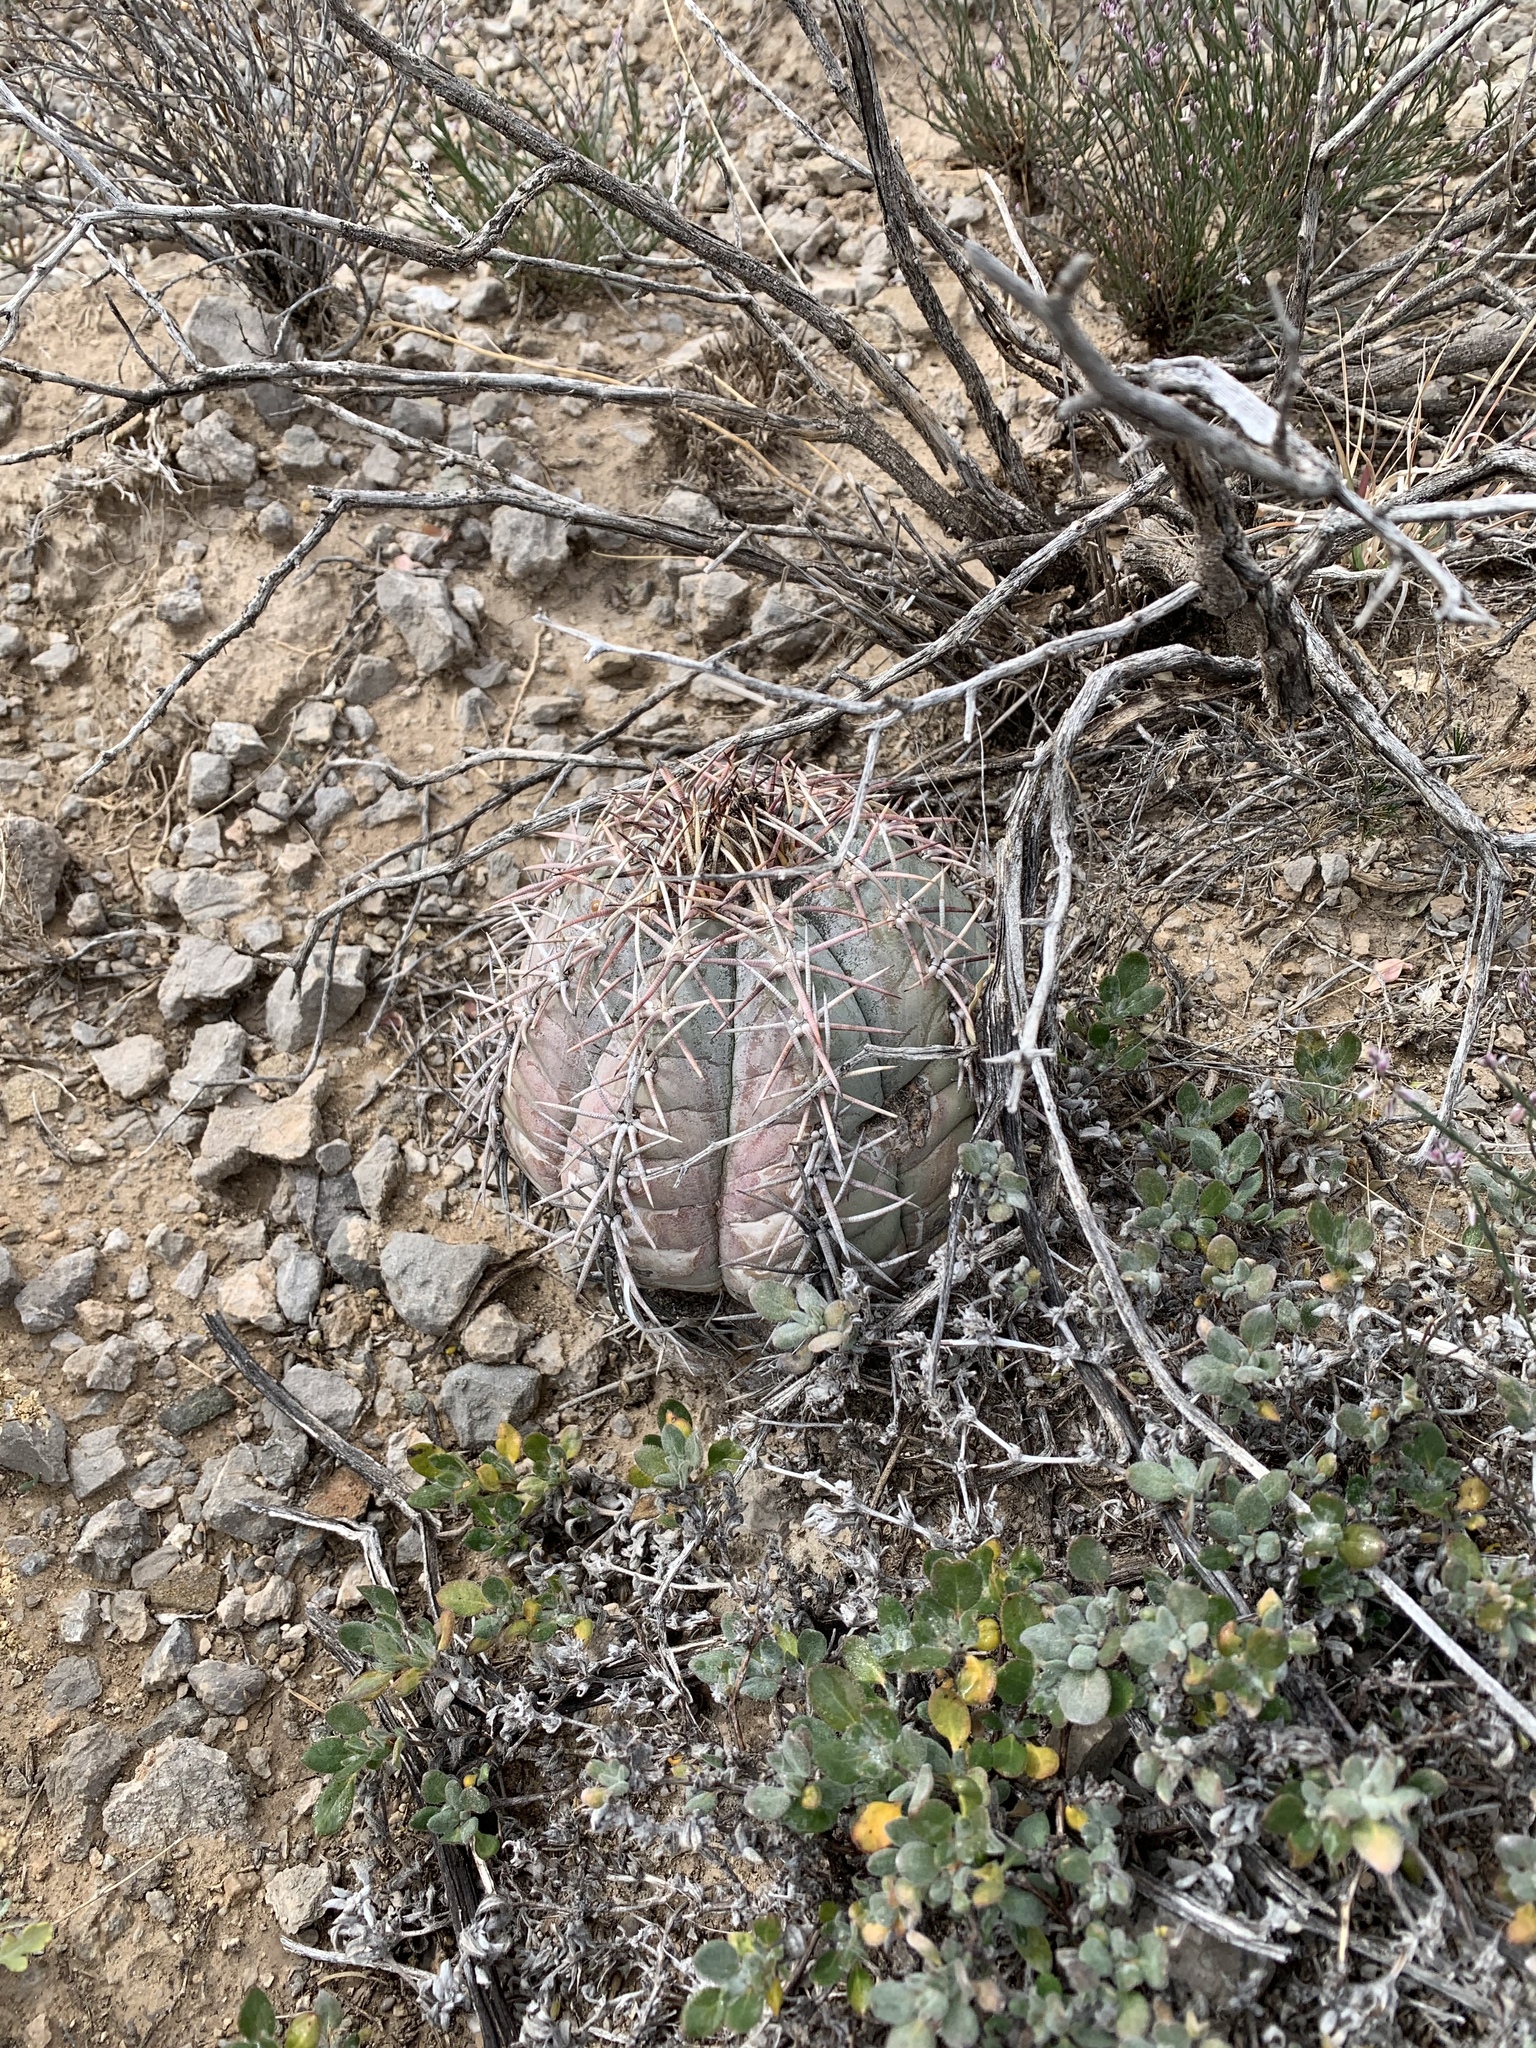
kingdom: Plantae
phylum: Tracheophyta
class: Magnoliopsida
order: Caryophyllales
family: Cactaceae
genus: Echinocactus
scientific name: Echinocactus horizonthalonius
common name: Devilshead
